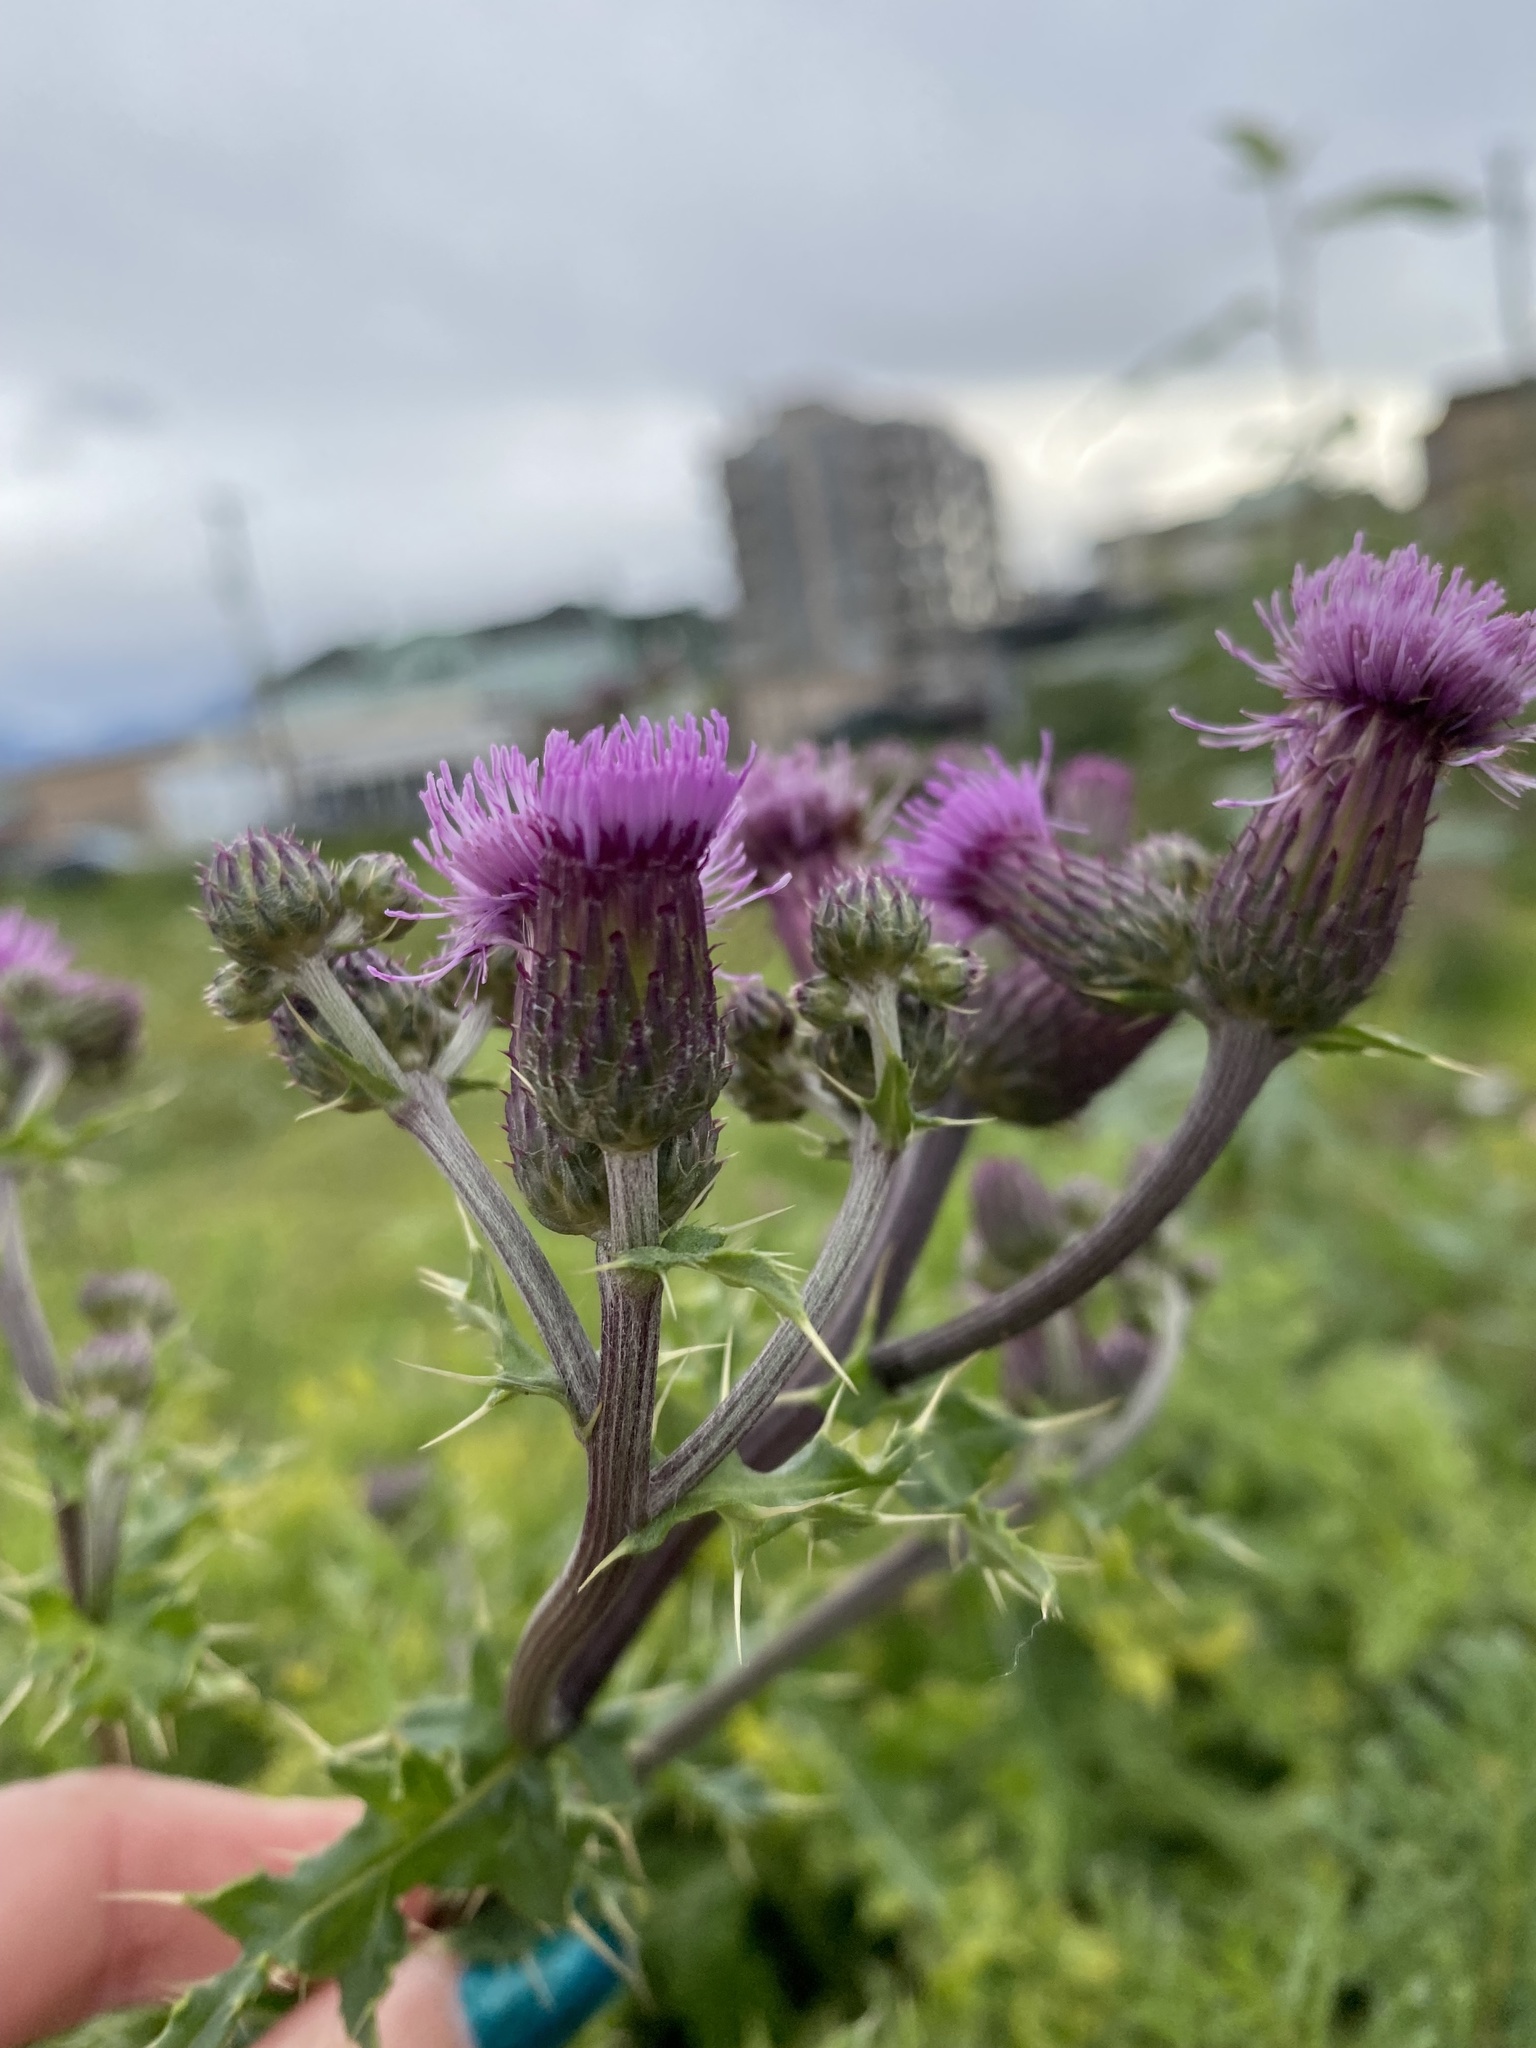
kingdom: Plantae
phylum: Tracheophyta
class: Magnoliopsida
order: Asterales
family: Asteraceae
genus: Cirsium
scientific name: Cirsium arvense
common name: Creeping thistle
